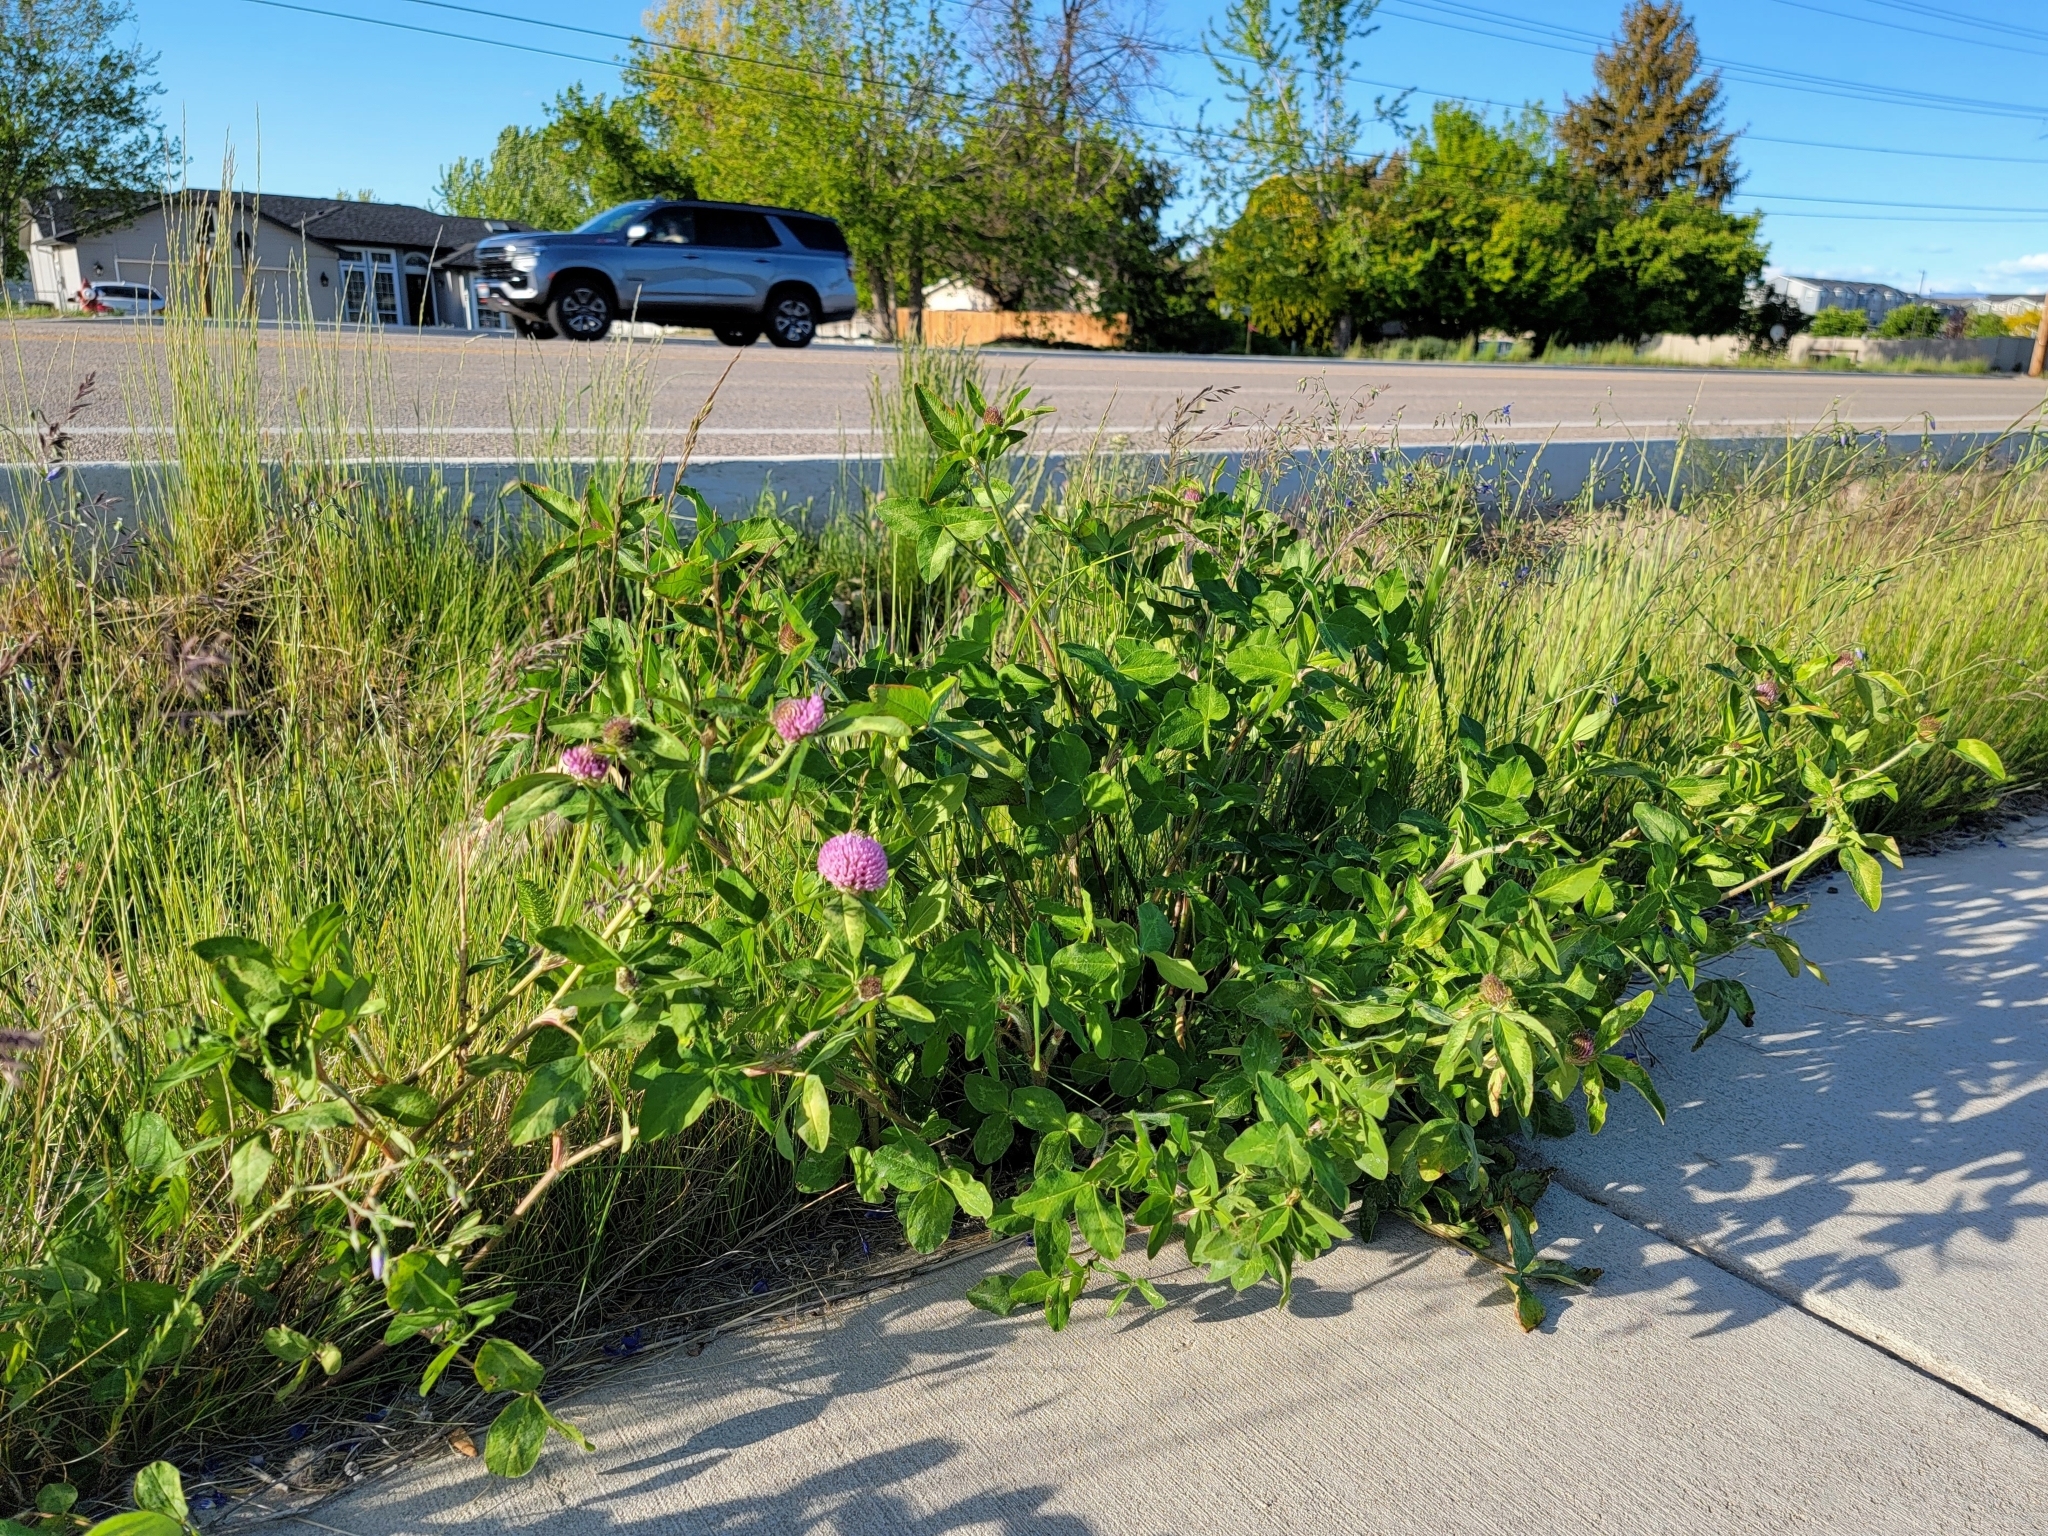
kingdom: Plantae
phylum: Tracheophyta
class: Magnoliopsida
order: Fabales
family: Fabaceae
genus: Trifolium
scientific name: Trifolium pratense
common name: Red clover
